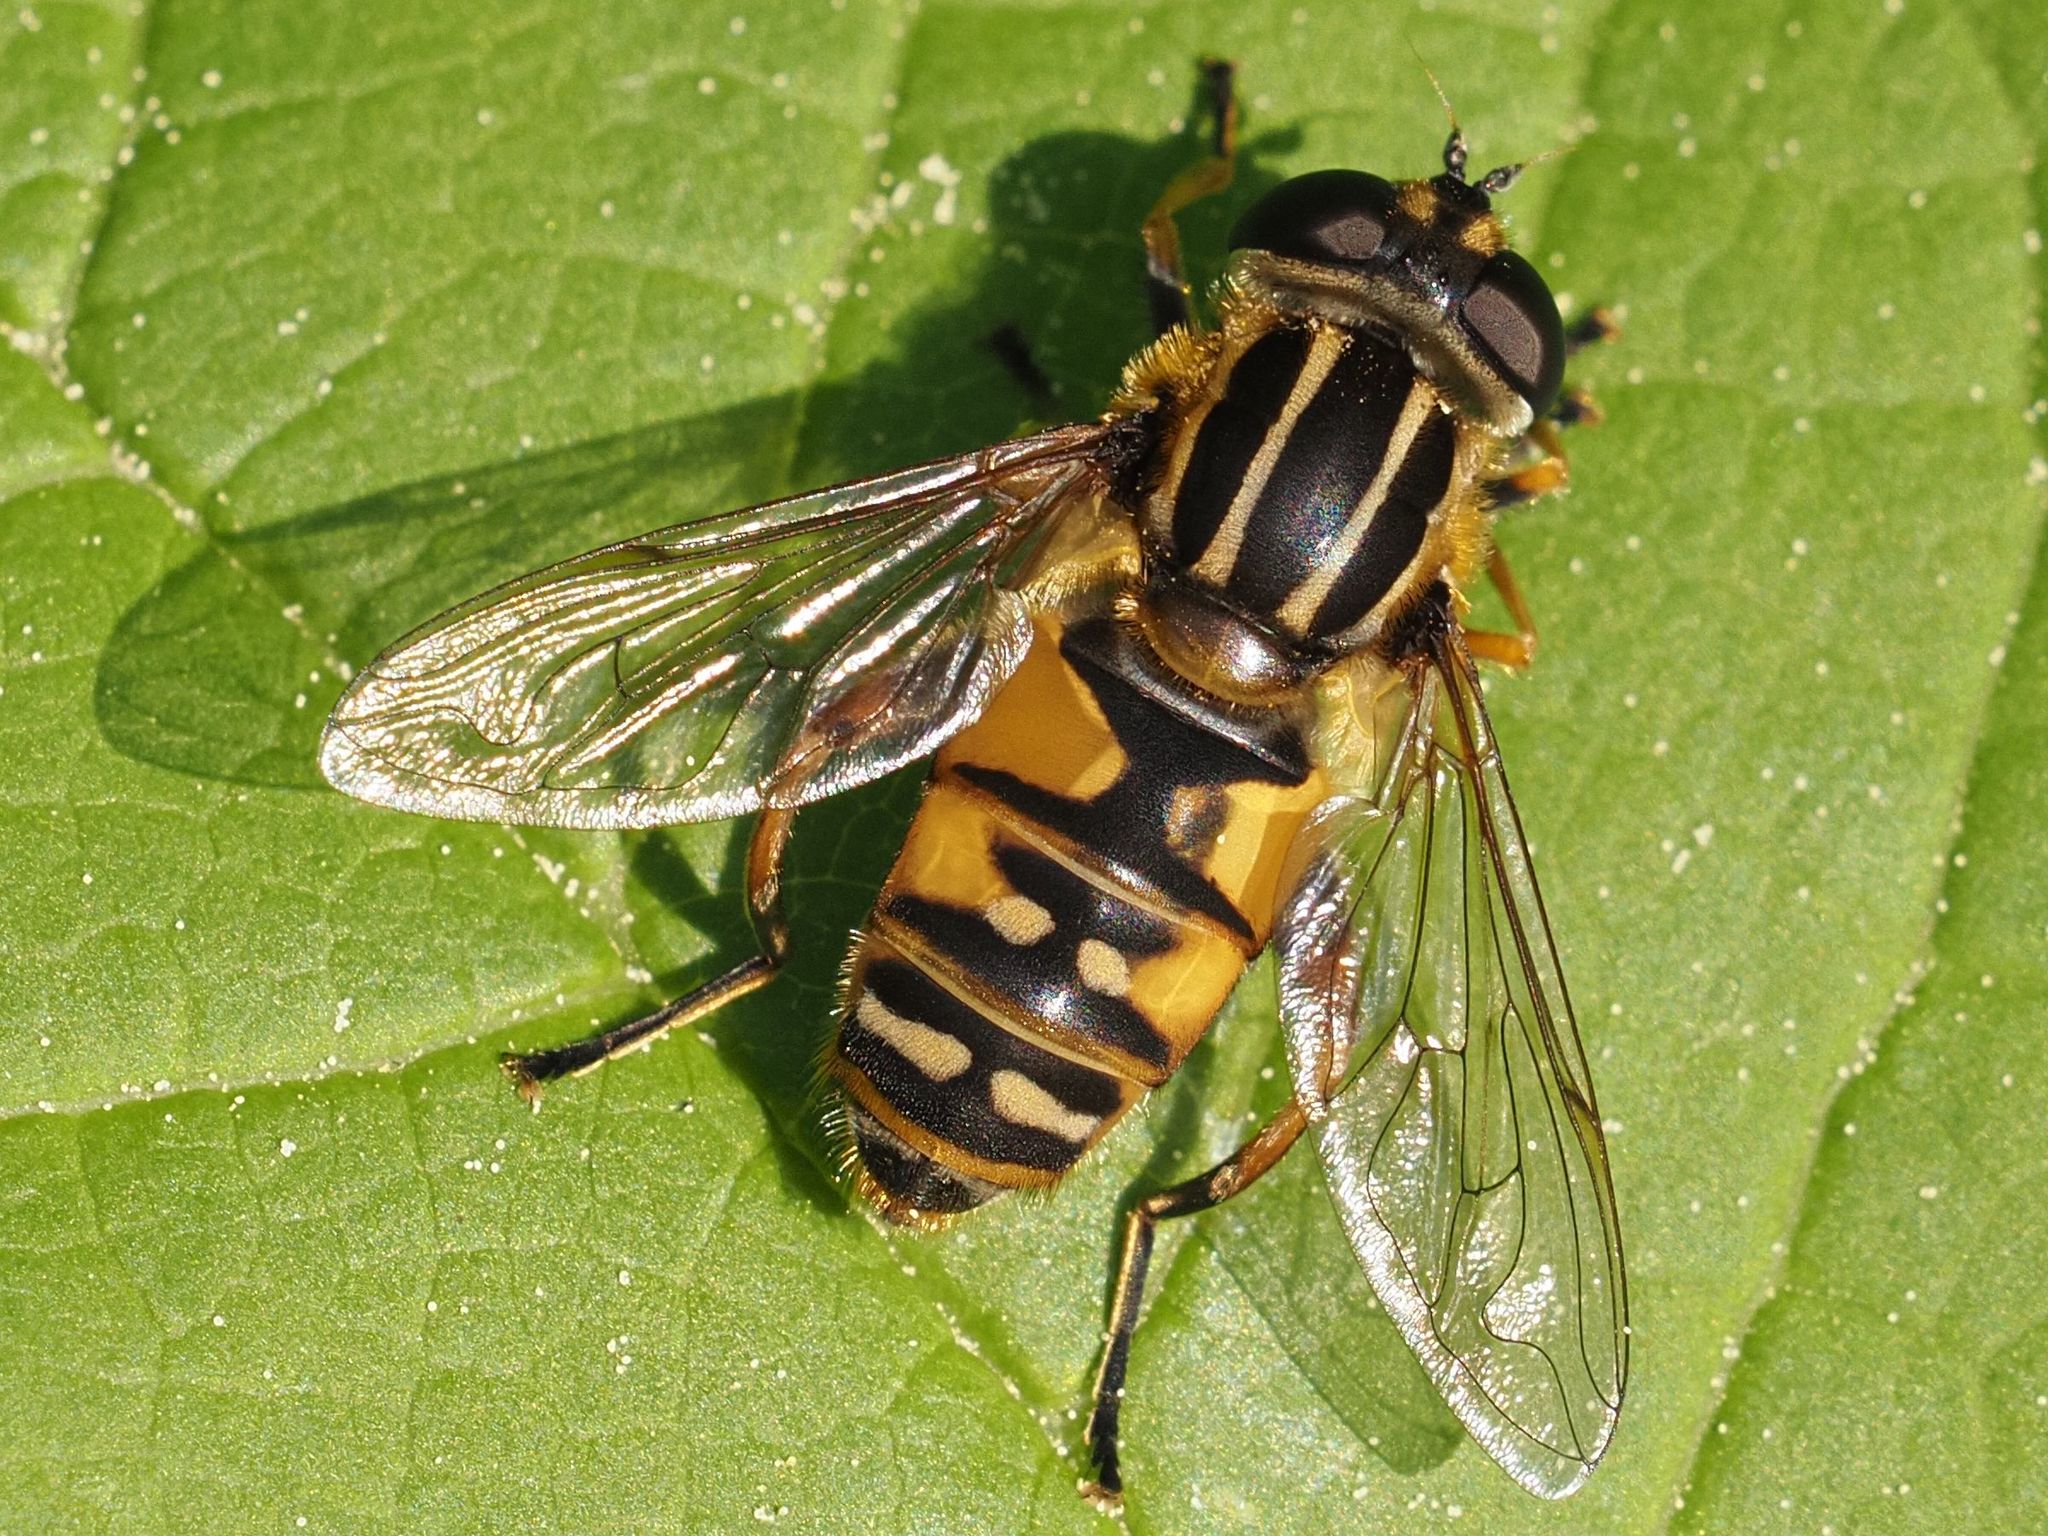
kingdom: Animalia
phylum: Arthropoda
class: Insecta
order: Diptera
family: Syrphidae
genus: Helophilus
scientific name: Helophilus pendulus
